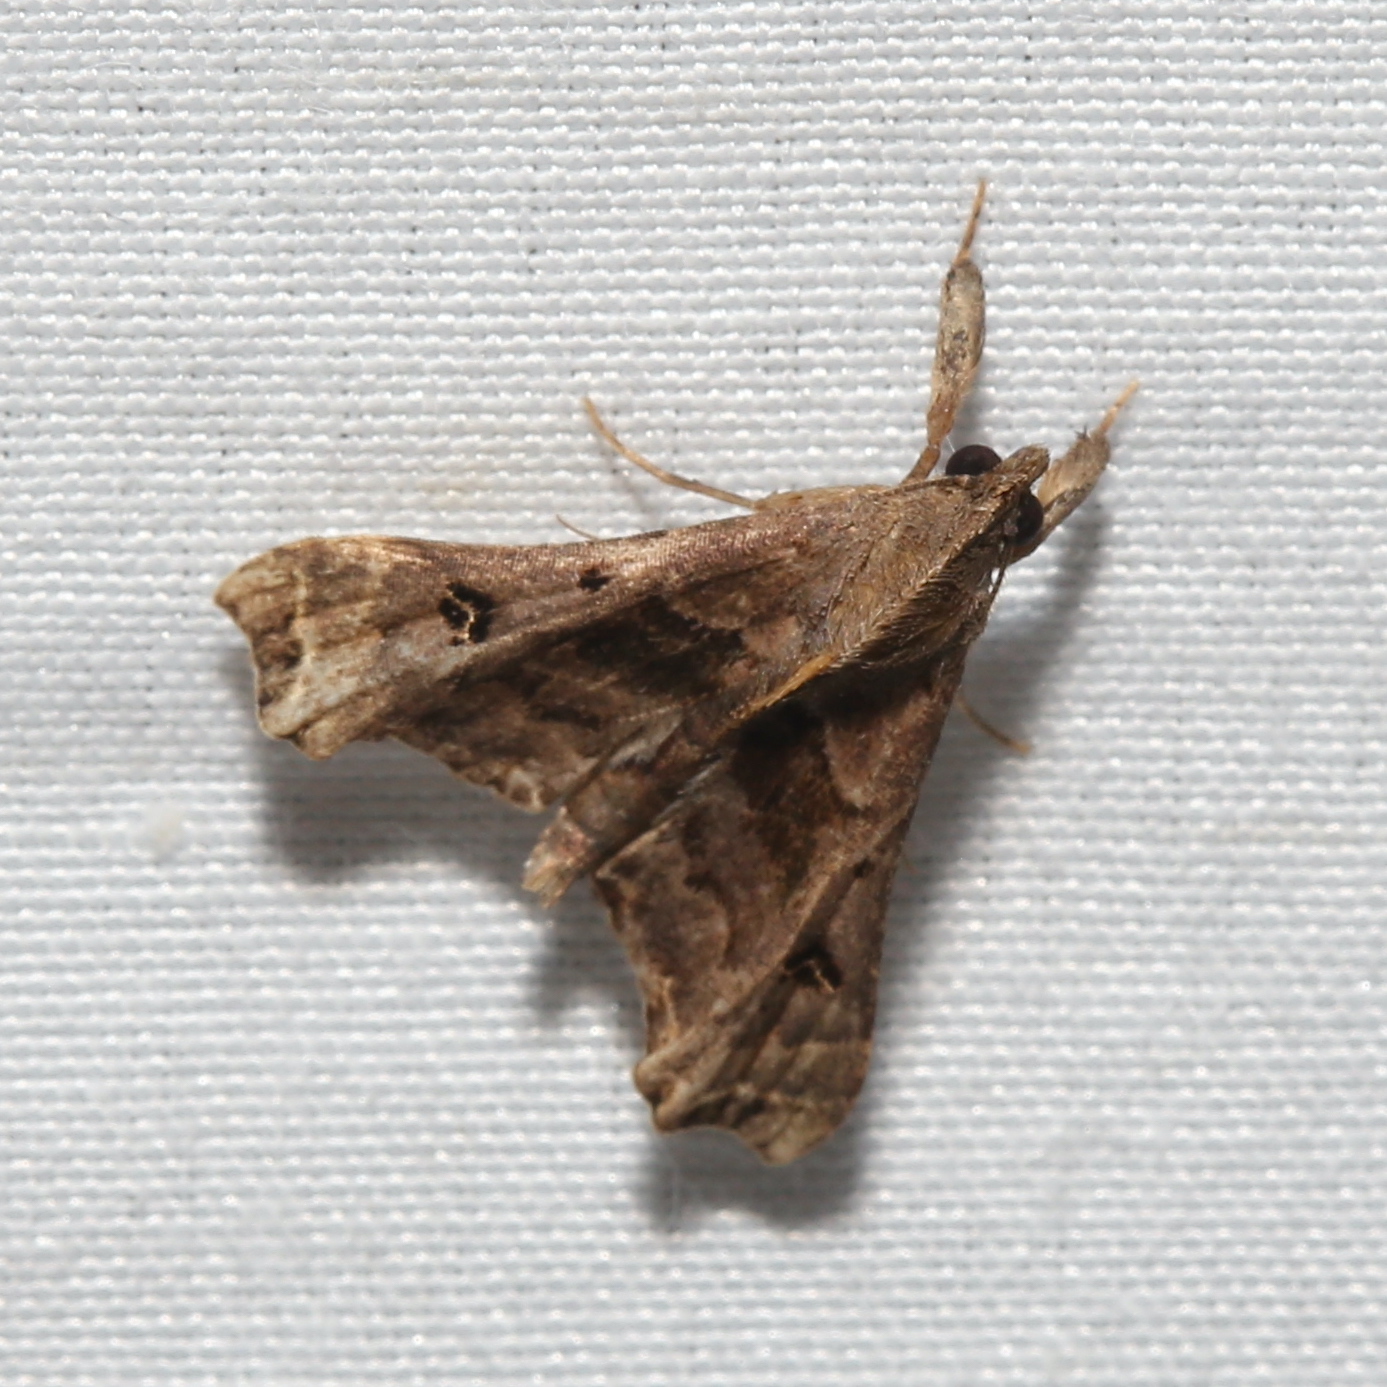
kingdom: Animalia
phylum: Arthropoda
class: Insecta
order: Lepidoptera
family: Erebidae
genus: Palthis
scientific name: Palthis asopialis
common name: Faint-spotted palthis moth
